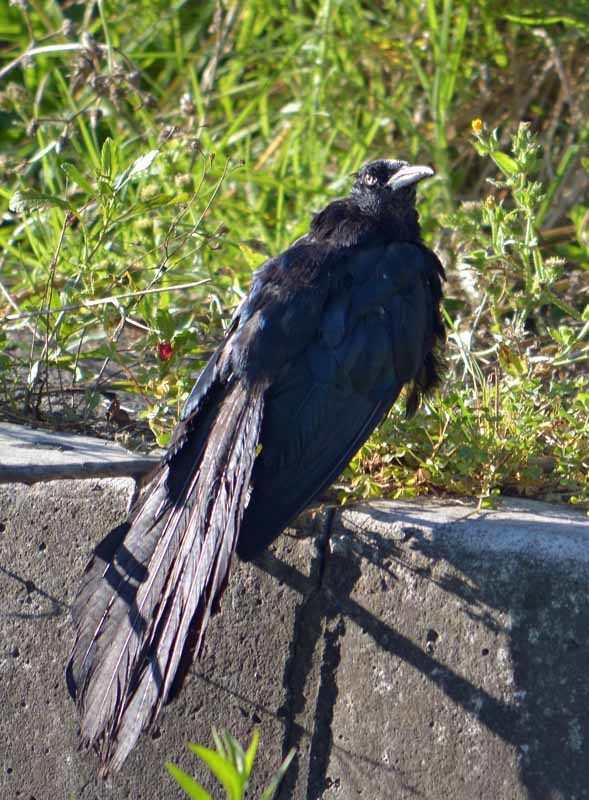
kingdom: Animalia
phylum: Chordata
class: Aves
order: Passeriformes
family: Icteridae
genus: Quiscalus
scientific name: Quiscalus mexicanus
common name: Great-tailed grackle
